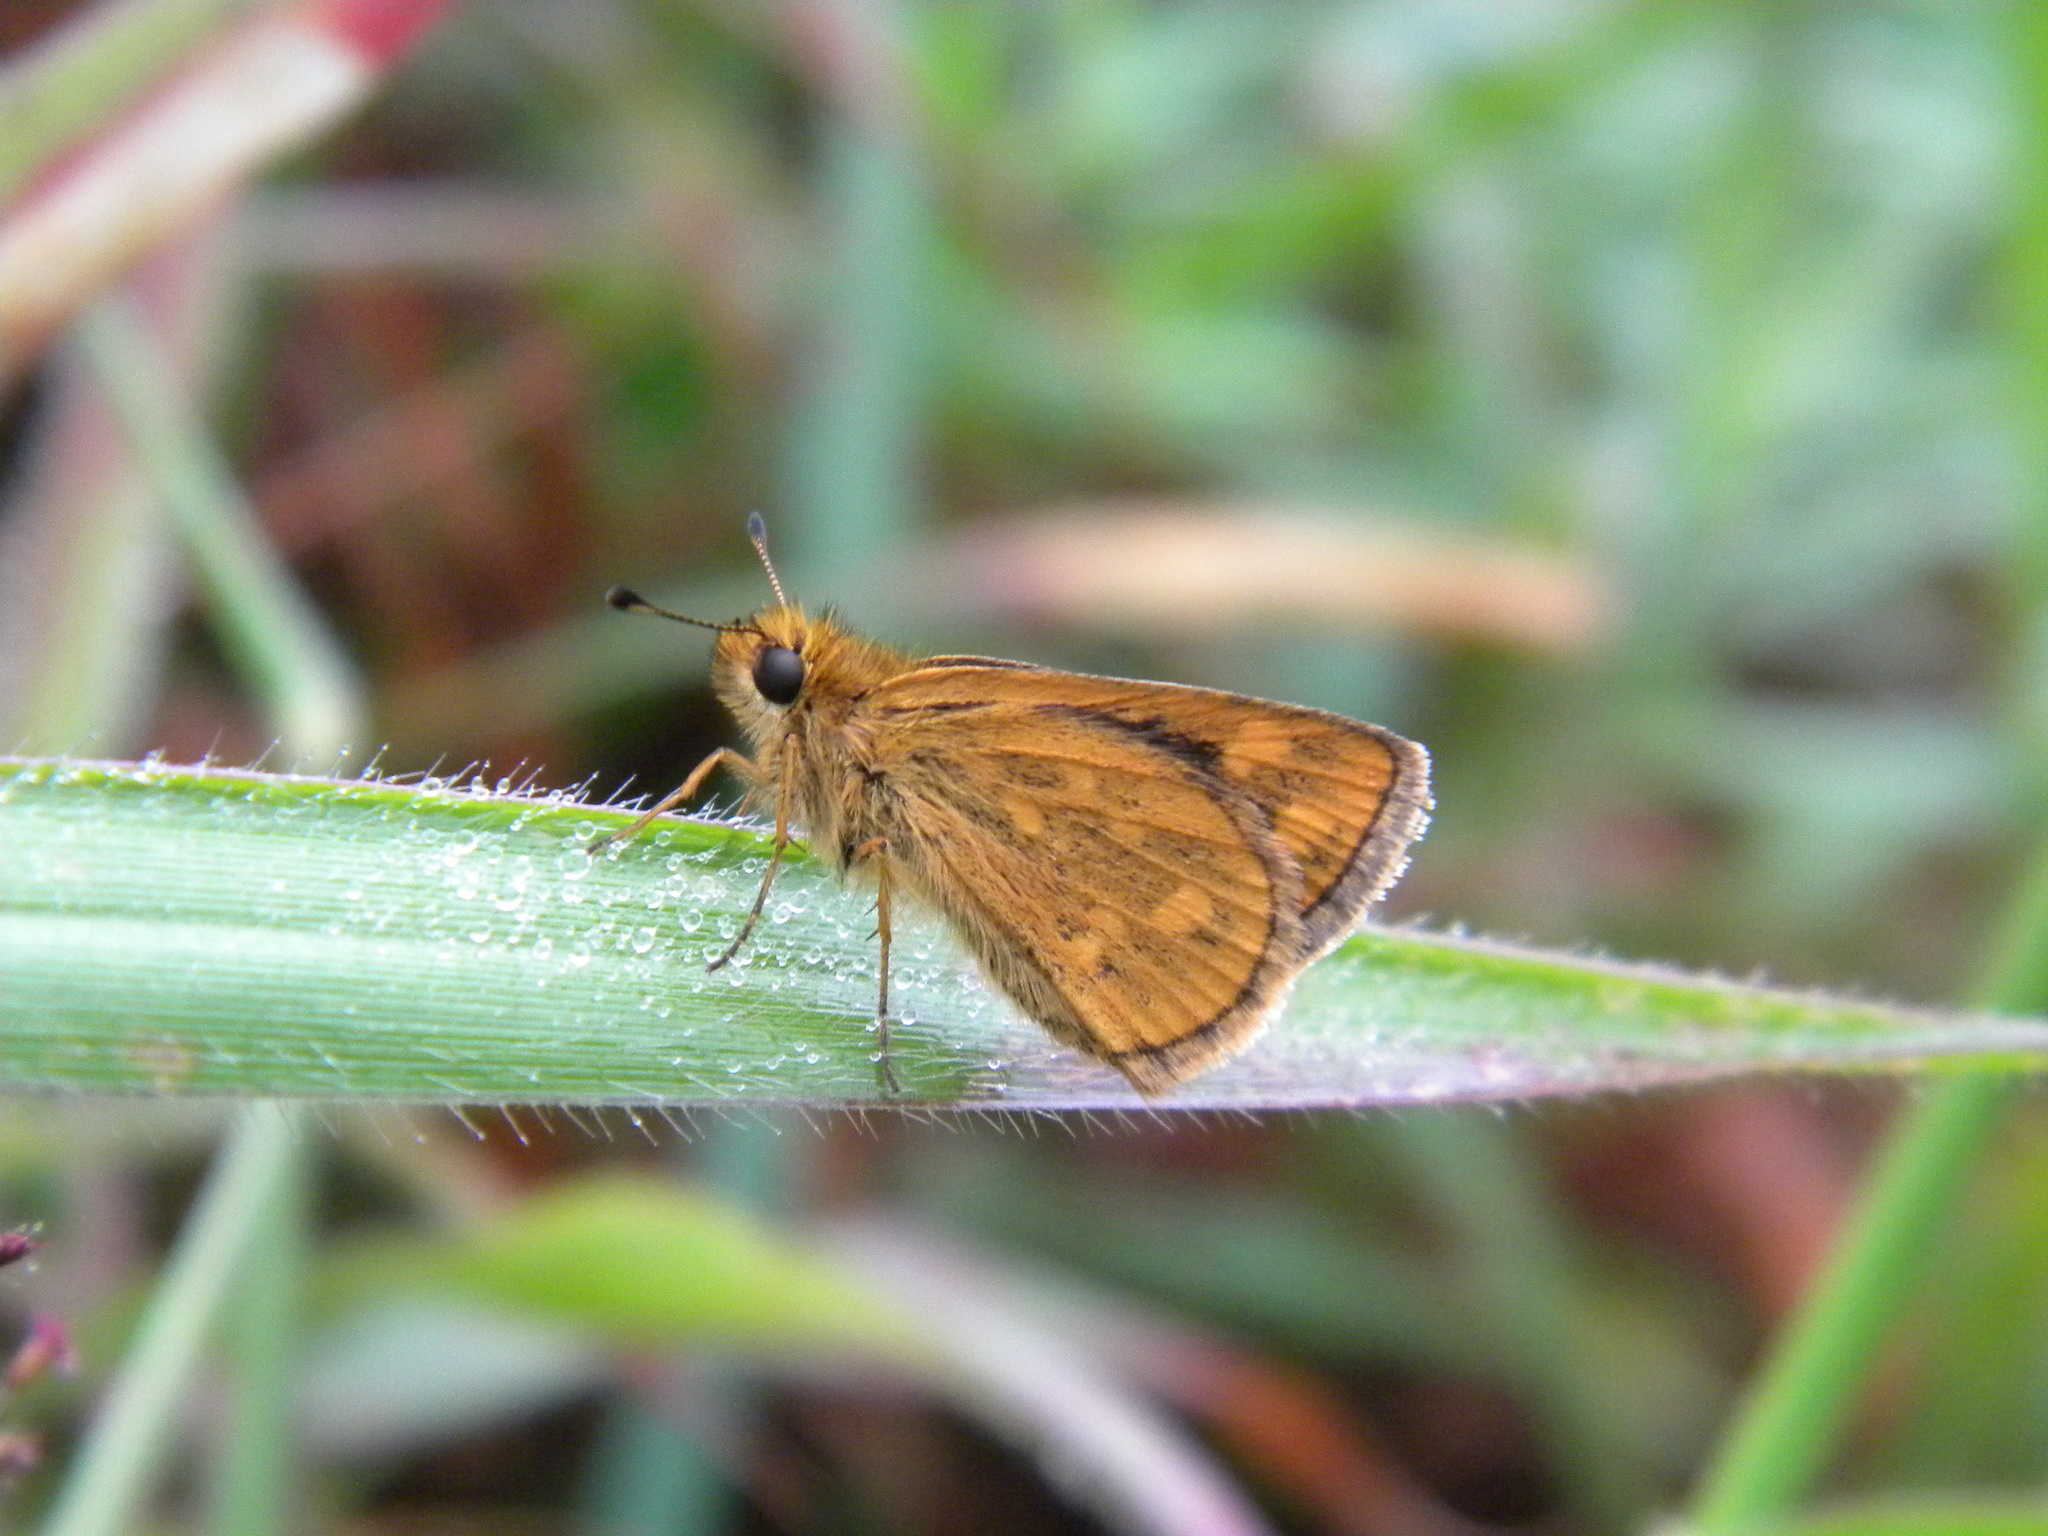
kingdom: Animalia
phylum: Arthropoda
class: Insecta
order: Lepidoptera
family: Hesperiidae
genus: Taractrocera
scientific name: Taractrocera ceramas
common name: Tamil grass dart
